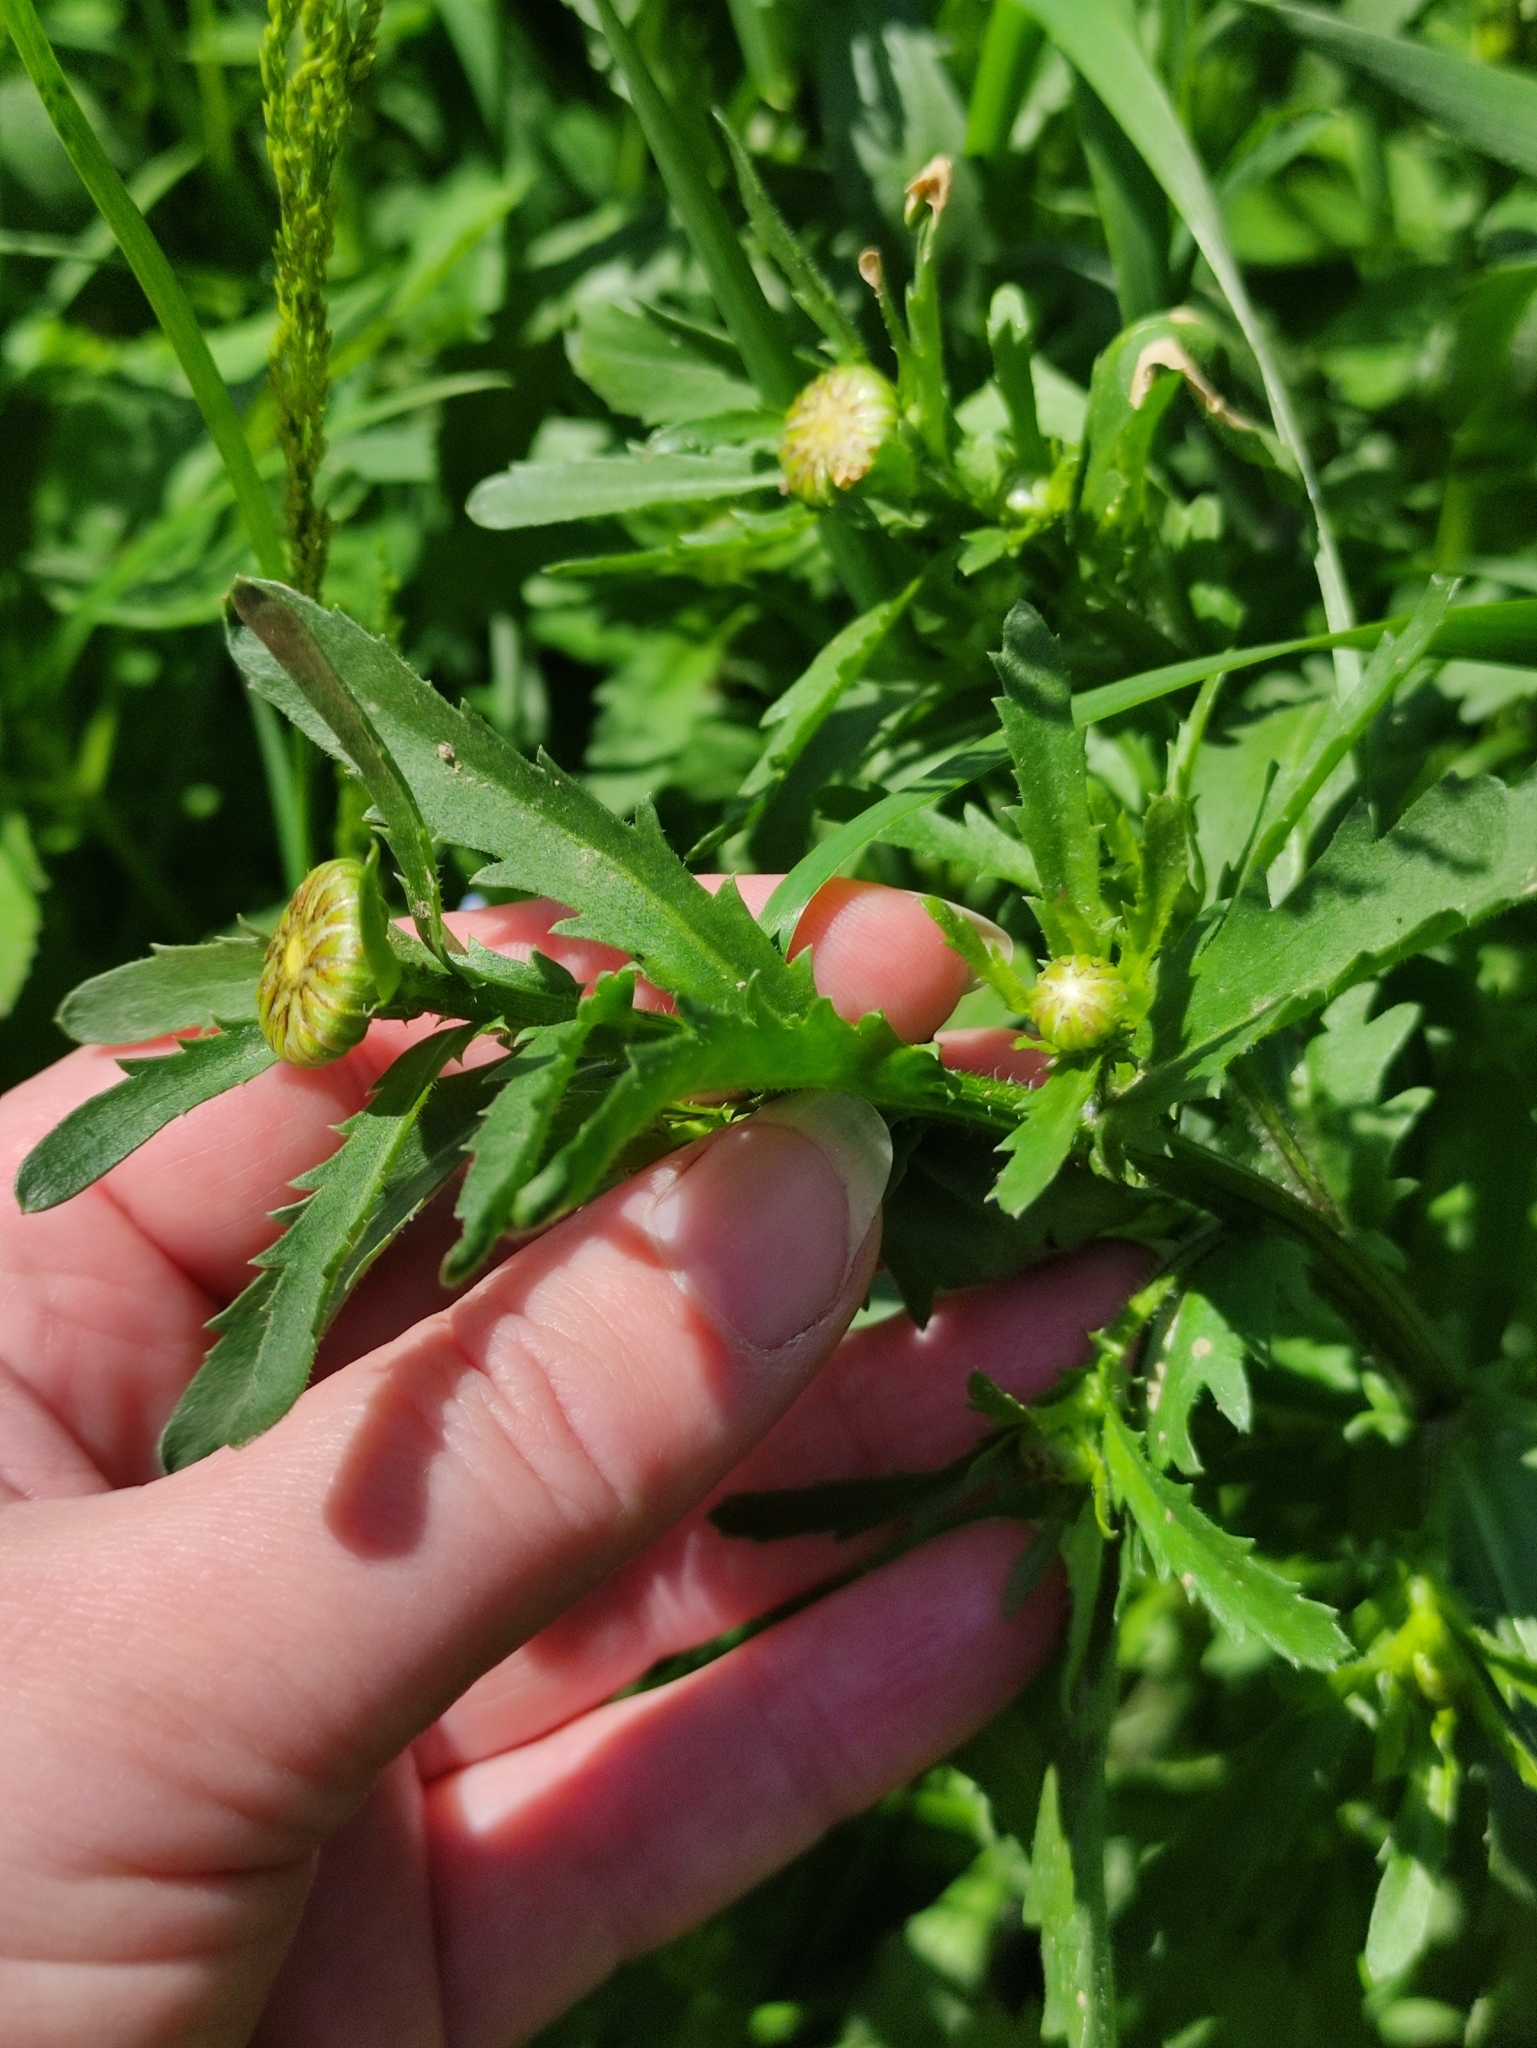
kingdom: Plantae
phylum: Tracheophyta
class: Magnoliopsida
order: Asterales
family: Asteraceae
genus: Leucanthemum
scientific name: Leucanthemum vulgare
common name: Oxeye daisy
